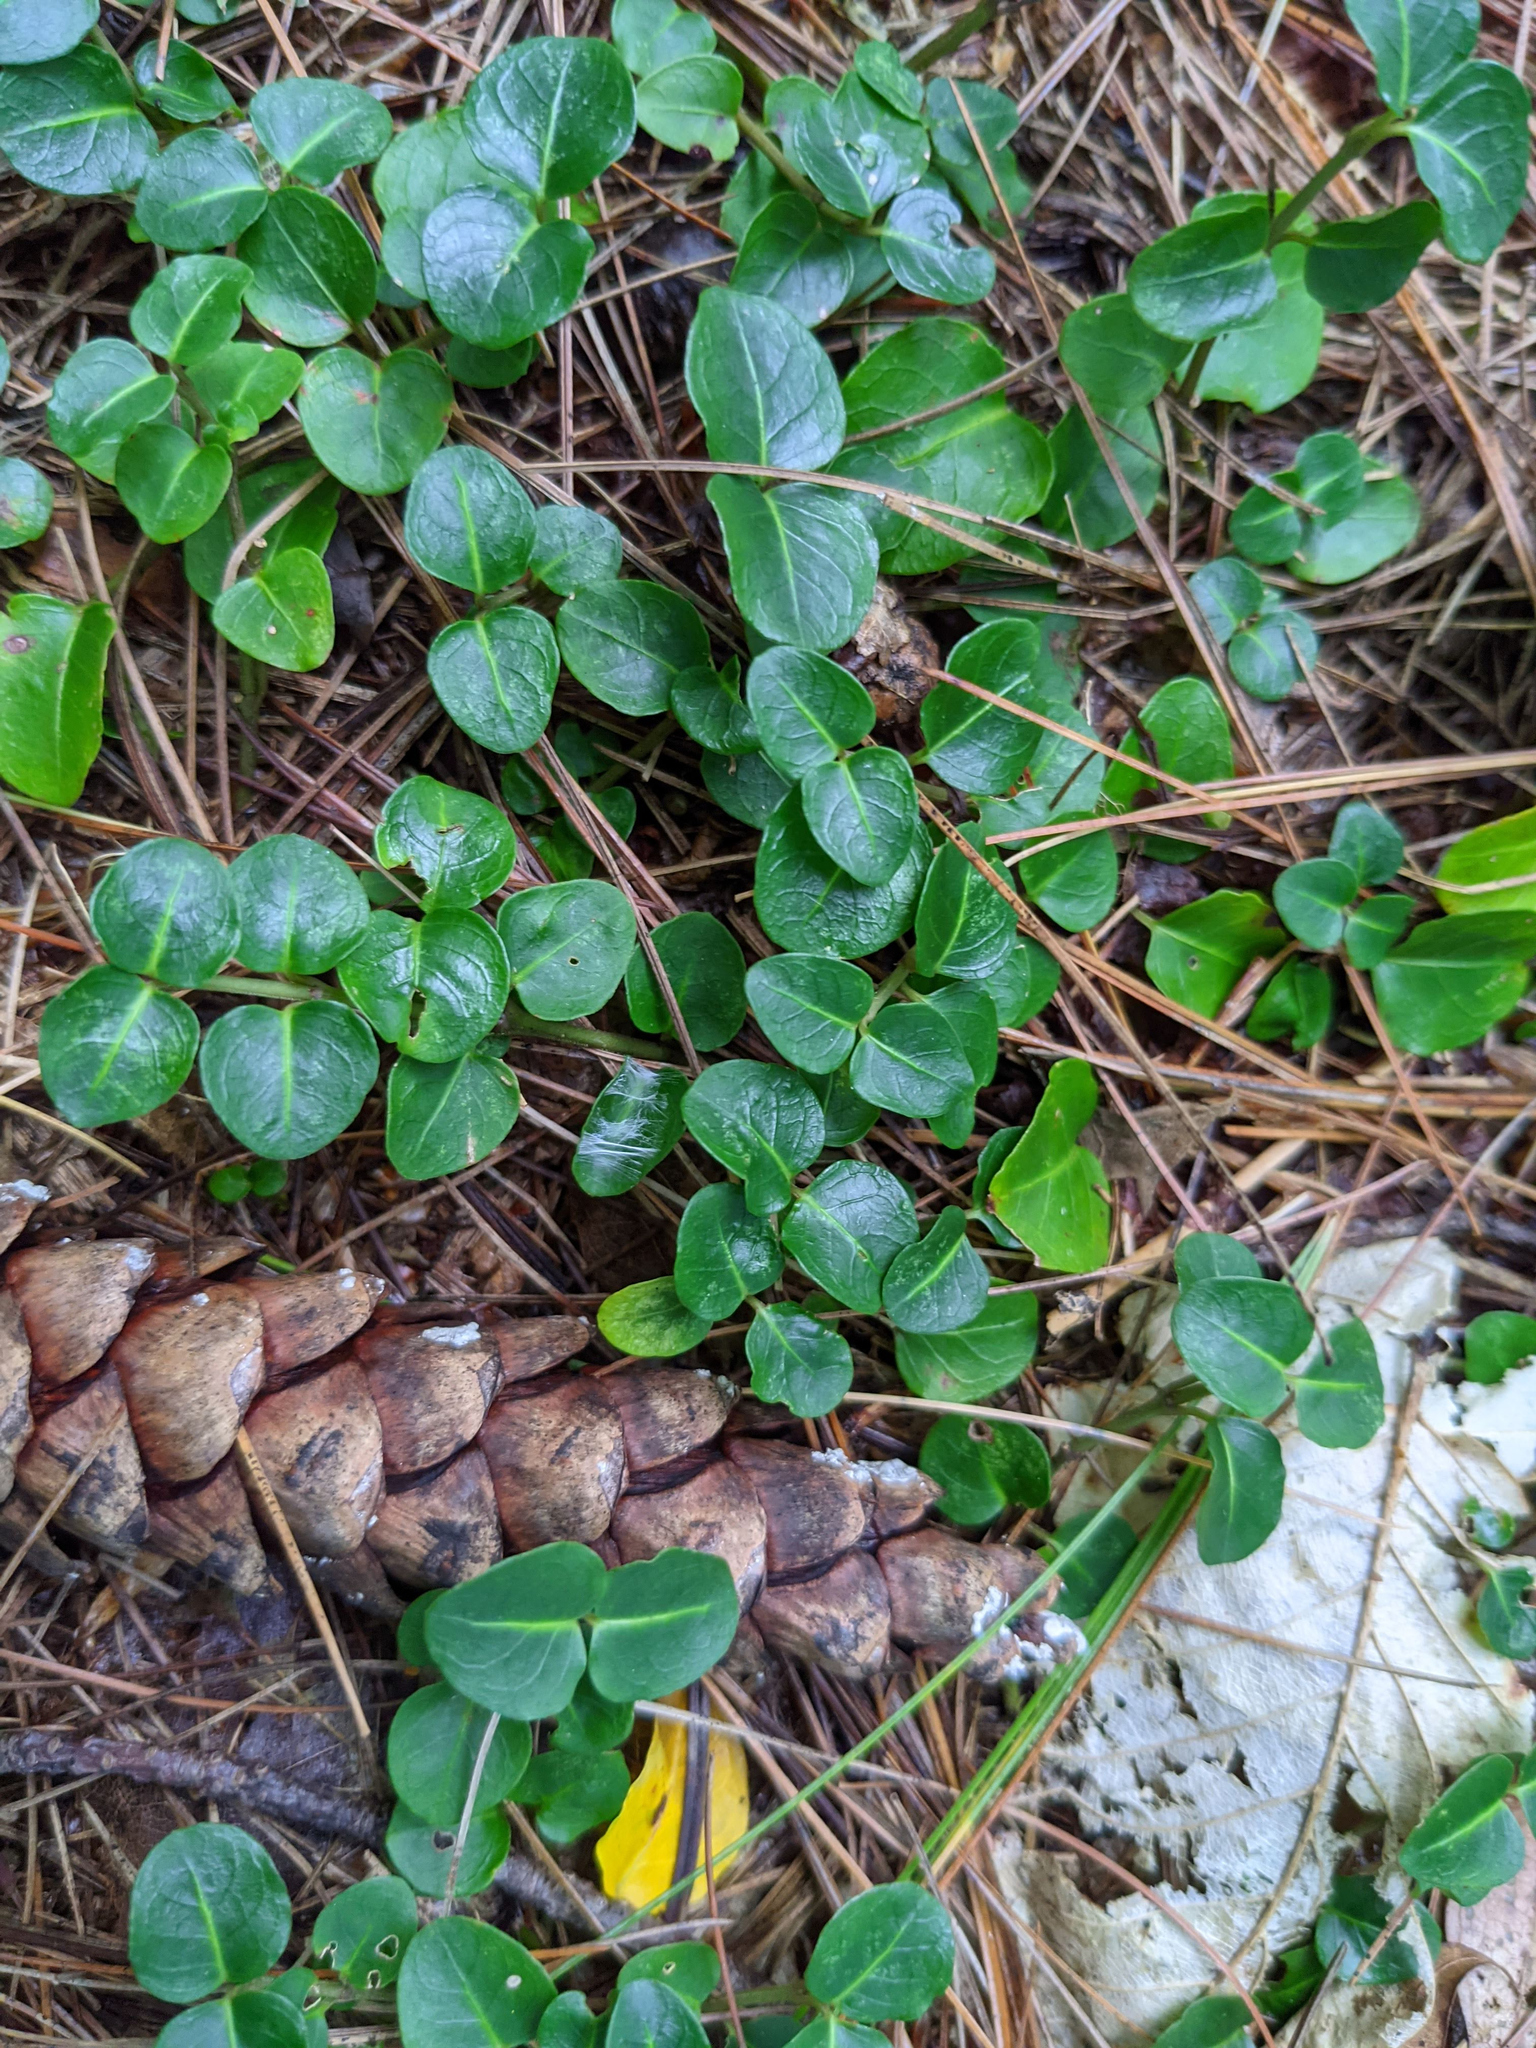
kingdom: Plantae
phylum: Tracheophyta
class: Magnoliopsida
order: Gentianales
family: Rubiaceae
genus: Mitchella
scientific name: Mitchella repens
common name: Partridge-berry
